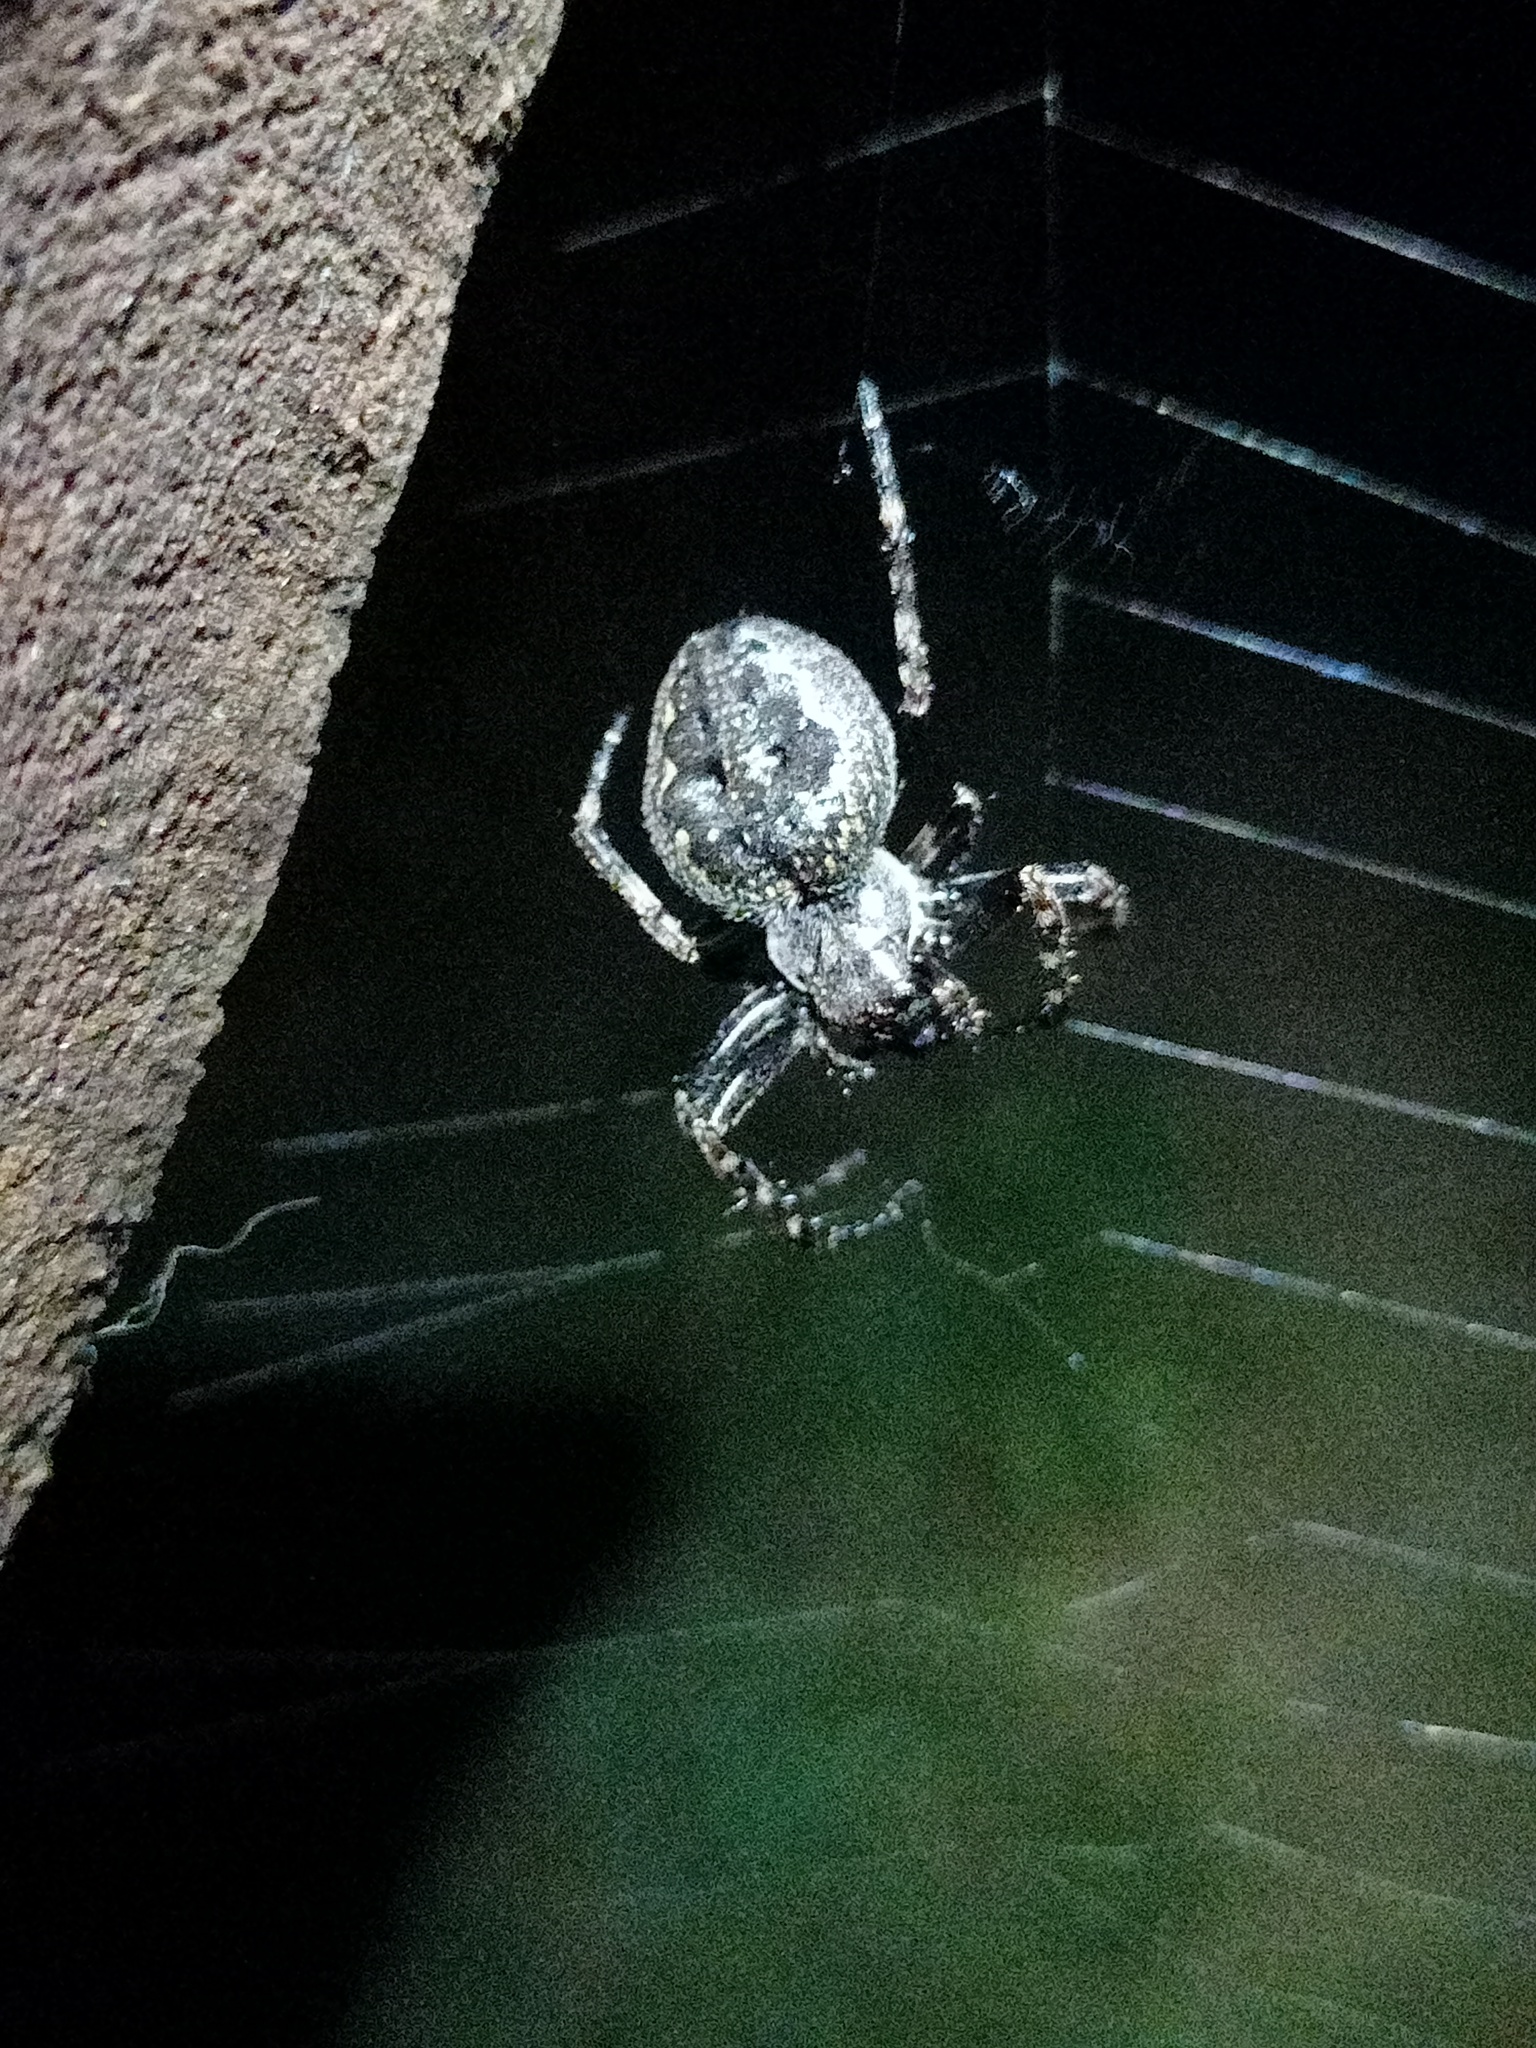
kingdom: Animalia
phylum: Arthropoda
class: Arachnida
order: Araneae
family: Araneidae
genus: Nuctenea
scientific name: Nuctenea umbratica
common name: Toad spider
